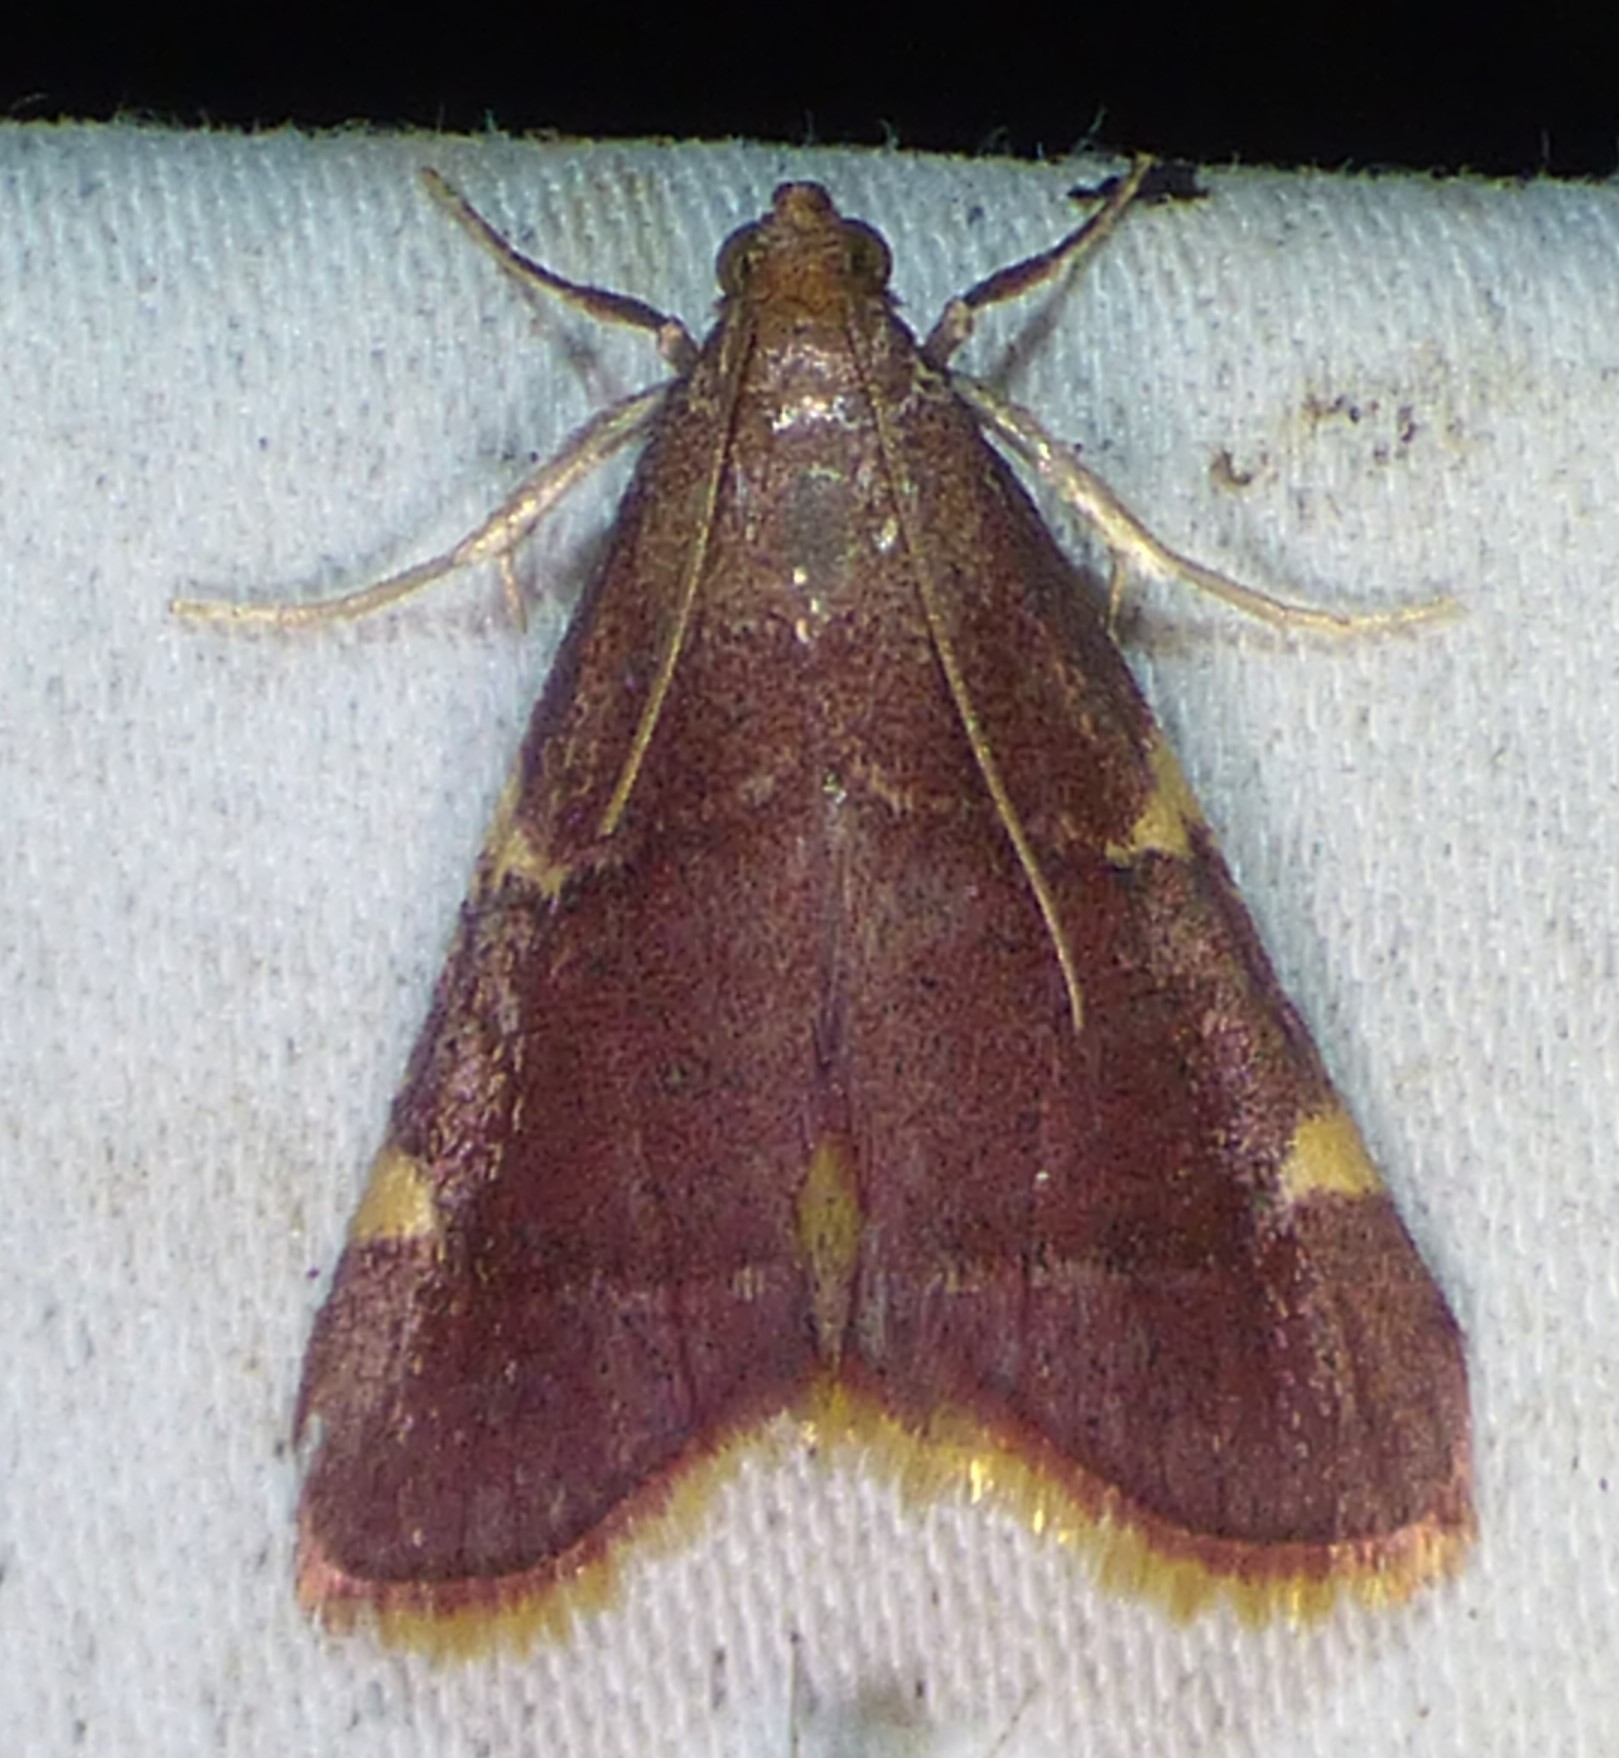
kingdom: Animalia
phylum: Arthropoda
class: Insecta
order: Lepidoptera
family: Pyralidae
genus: Hypsopygia
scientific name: Hypsopygia olinalis
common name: Yellow-fringed dolichomia moth
